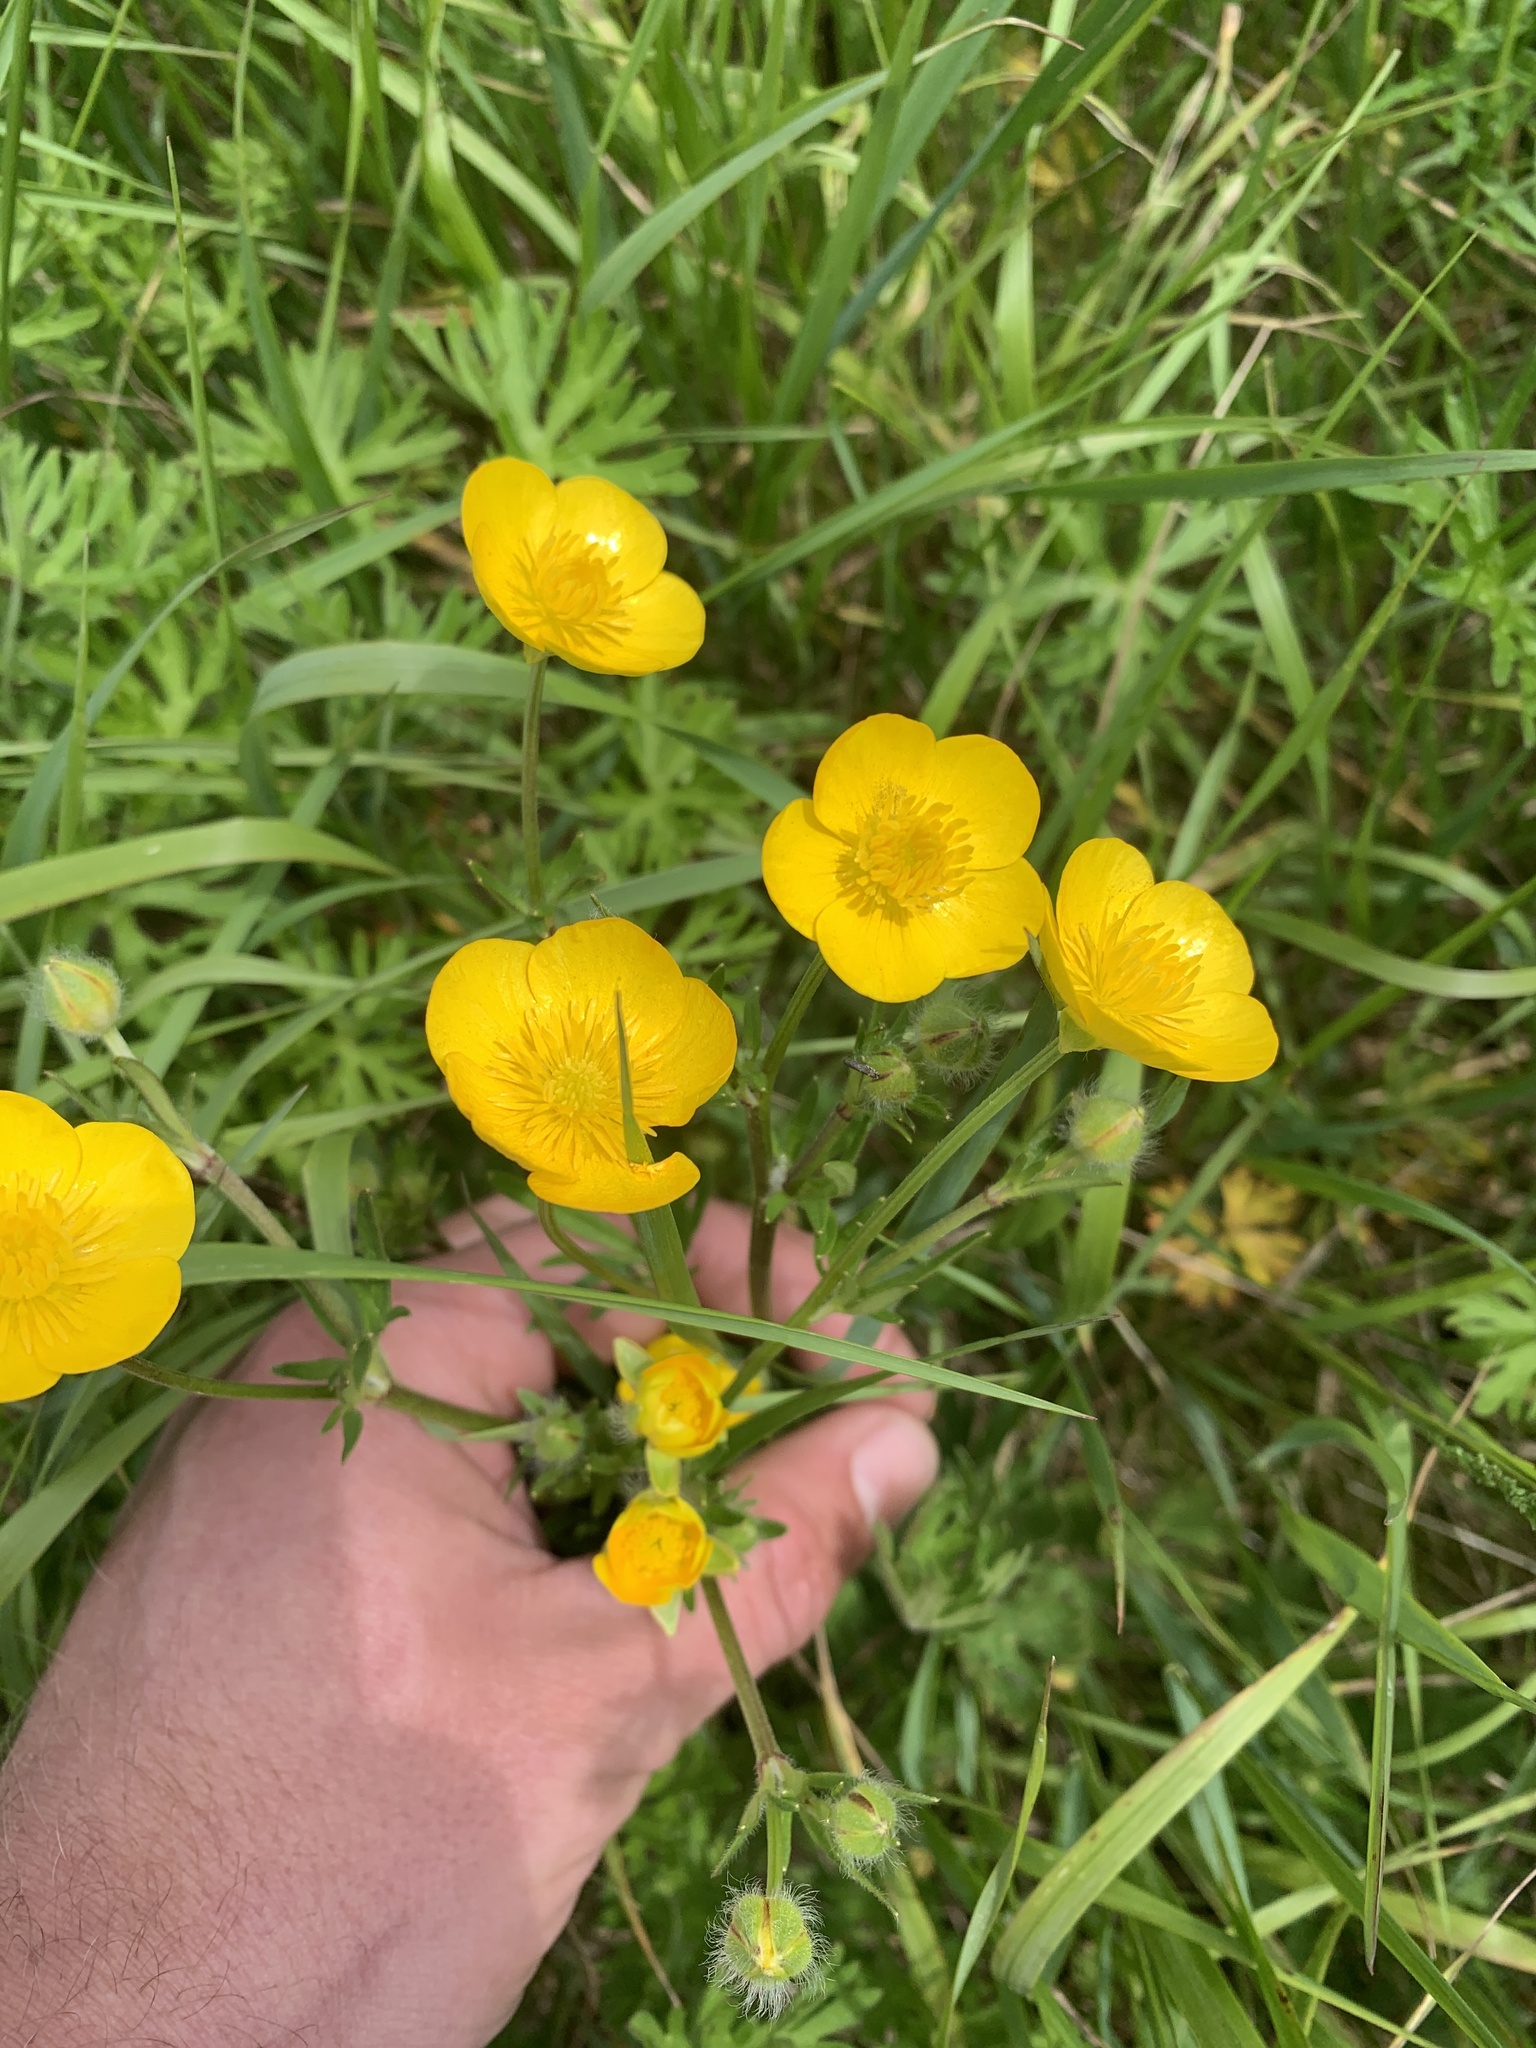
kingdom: Plantae
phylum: Tracheophyta
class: Magnoliopsida
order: Ranunculales
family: Ranunculaceae
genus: Ranunculus
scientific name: Ranunculus acris
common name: Meadow buttercup
